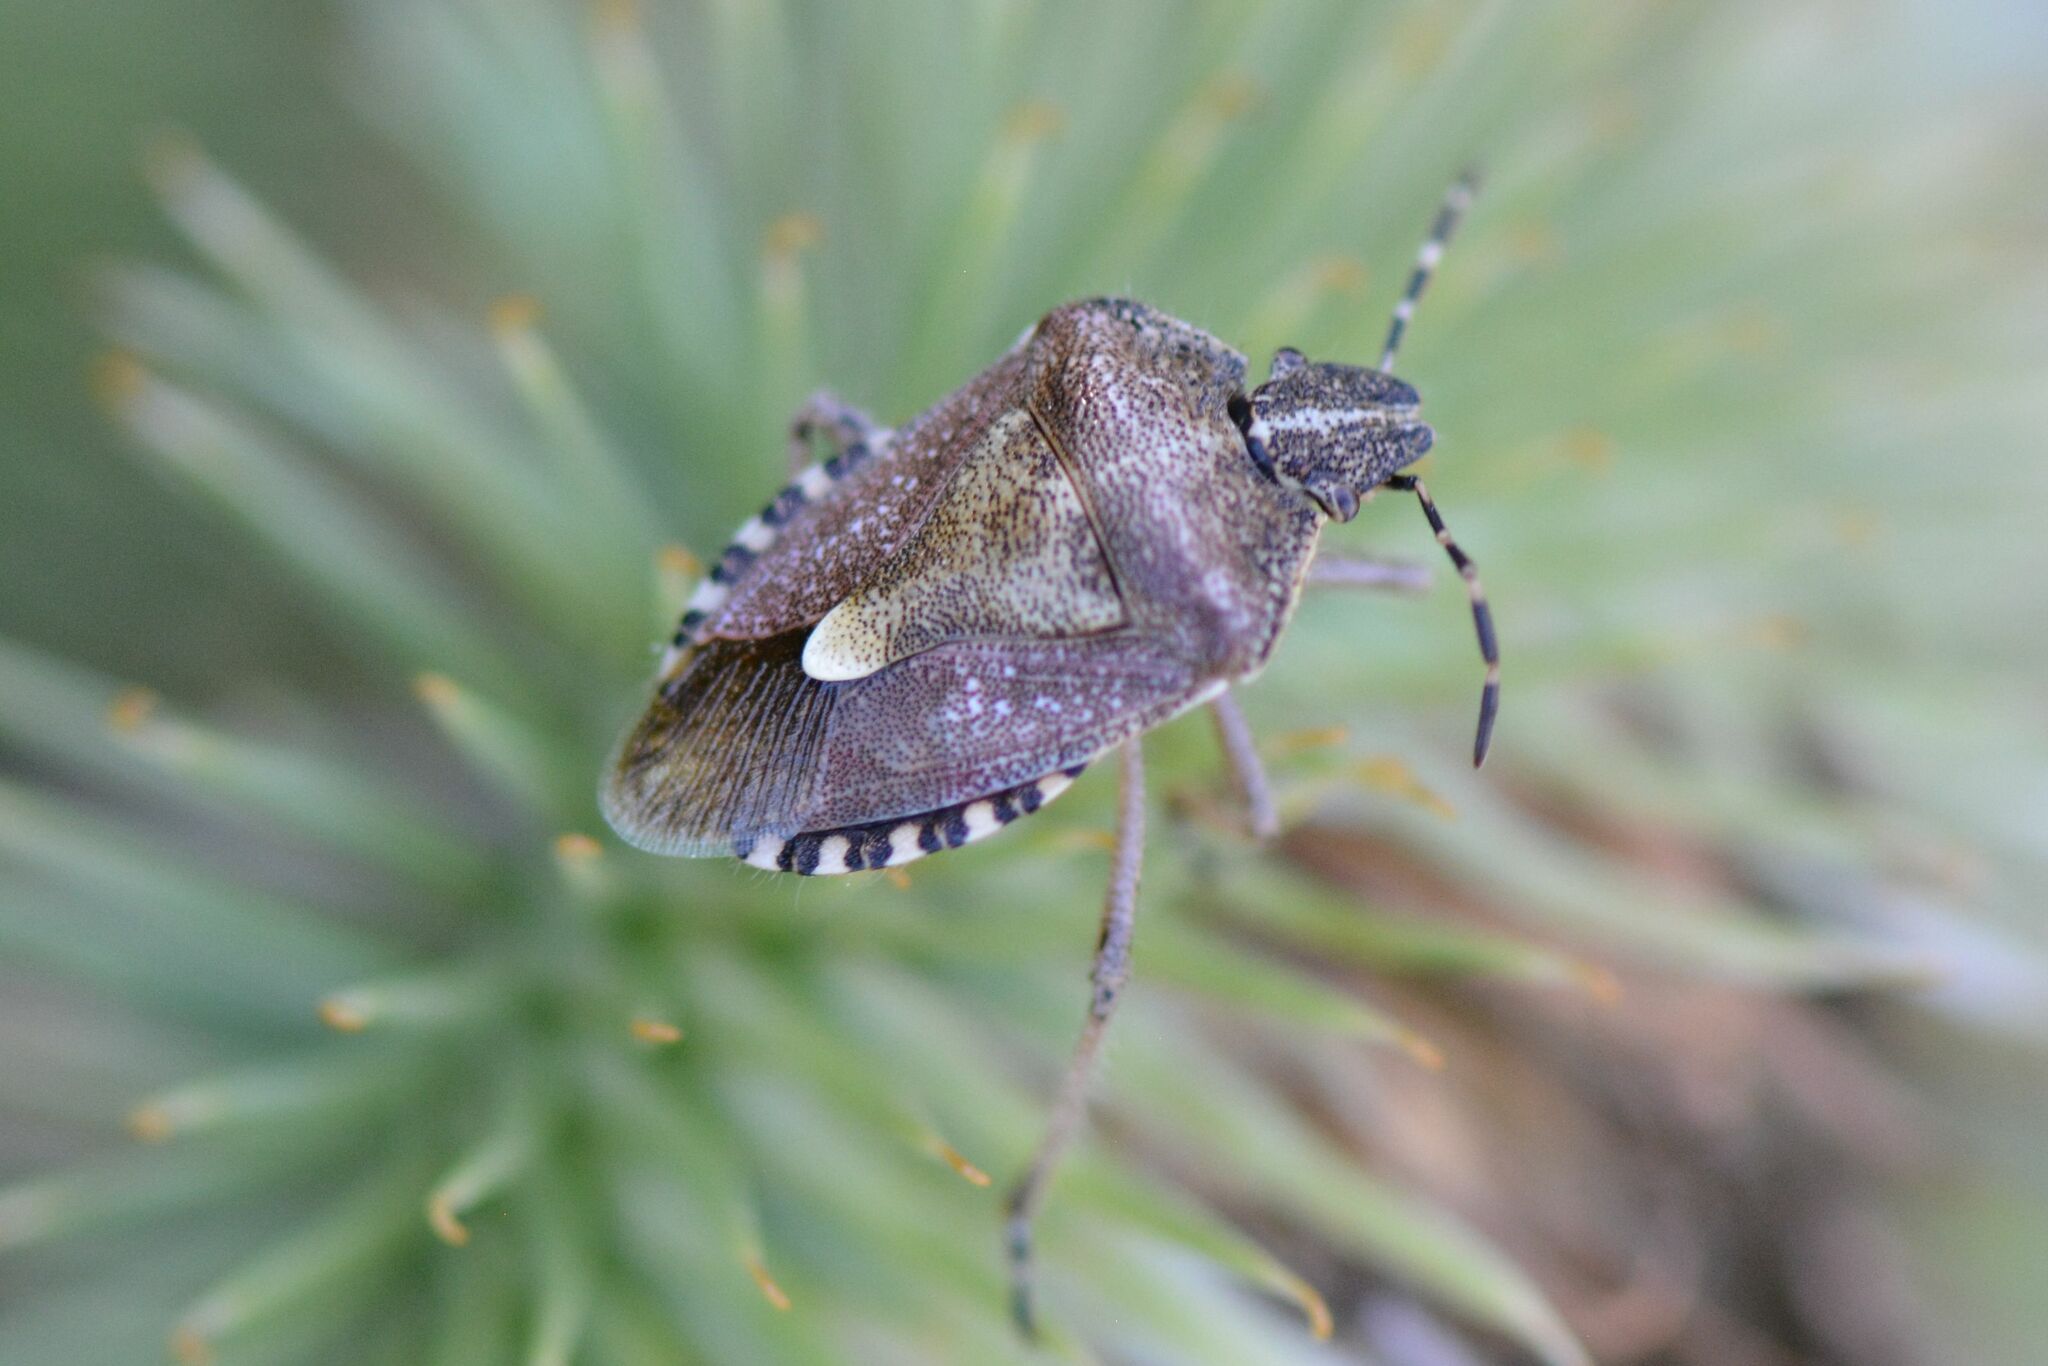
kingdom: Animalia
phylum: Arthropoda
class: Insecta
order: Hemiptera
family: Pentatomidae
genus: Dolycoris
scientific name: Dolycoris baccarum
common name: Sloe bug
